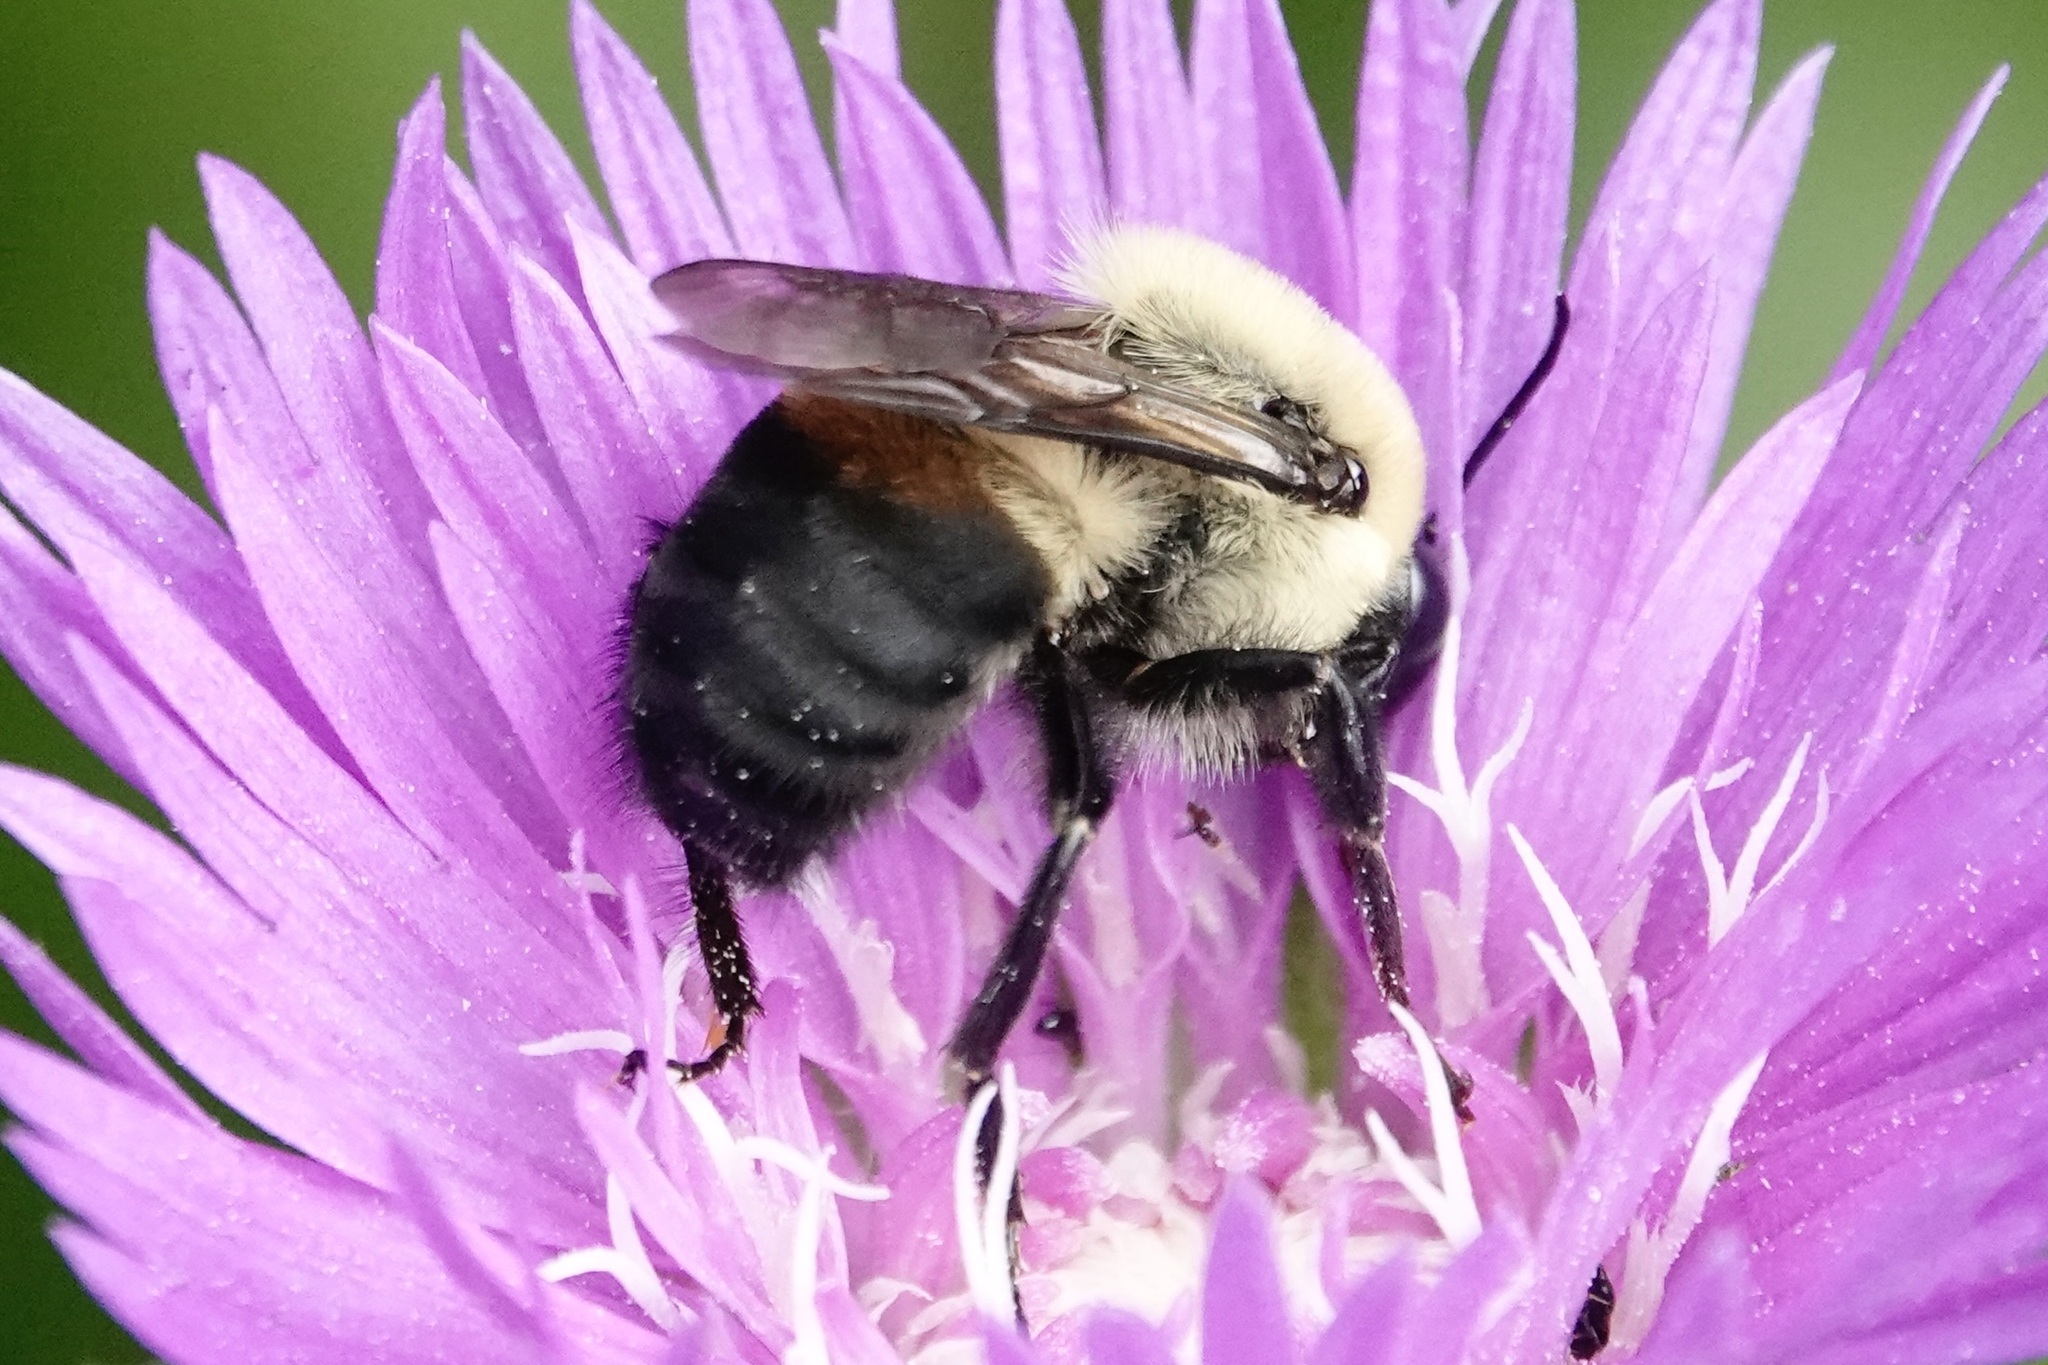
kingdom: Animalia
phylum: Arthropoda
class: Insecta
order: Hymenoptera
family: Apidae
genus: Bombus
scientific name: Bombus griseocollis
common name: Brown-belted bumble bee
